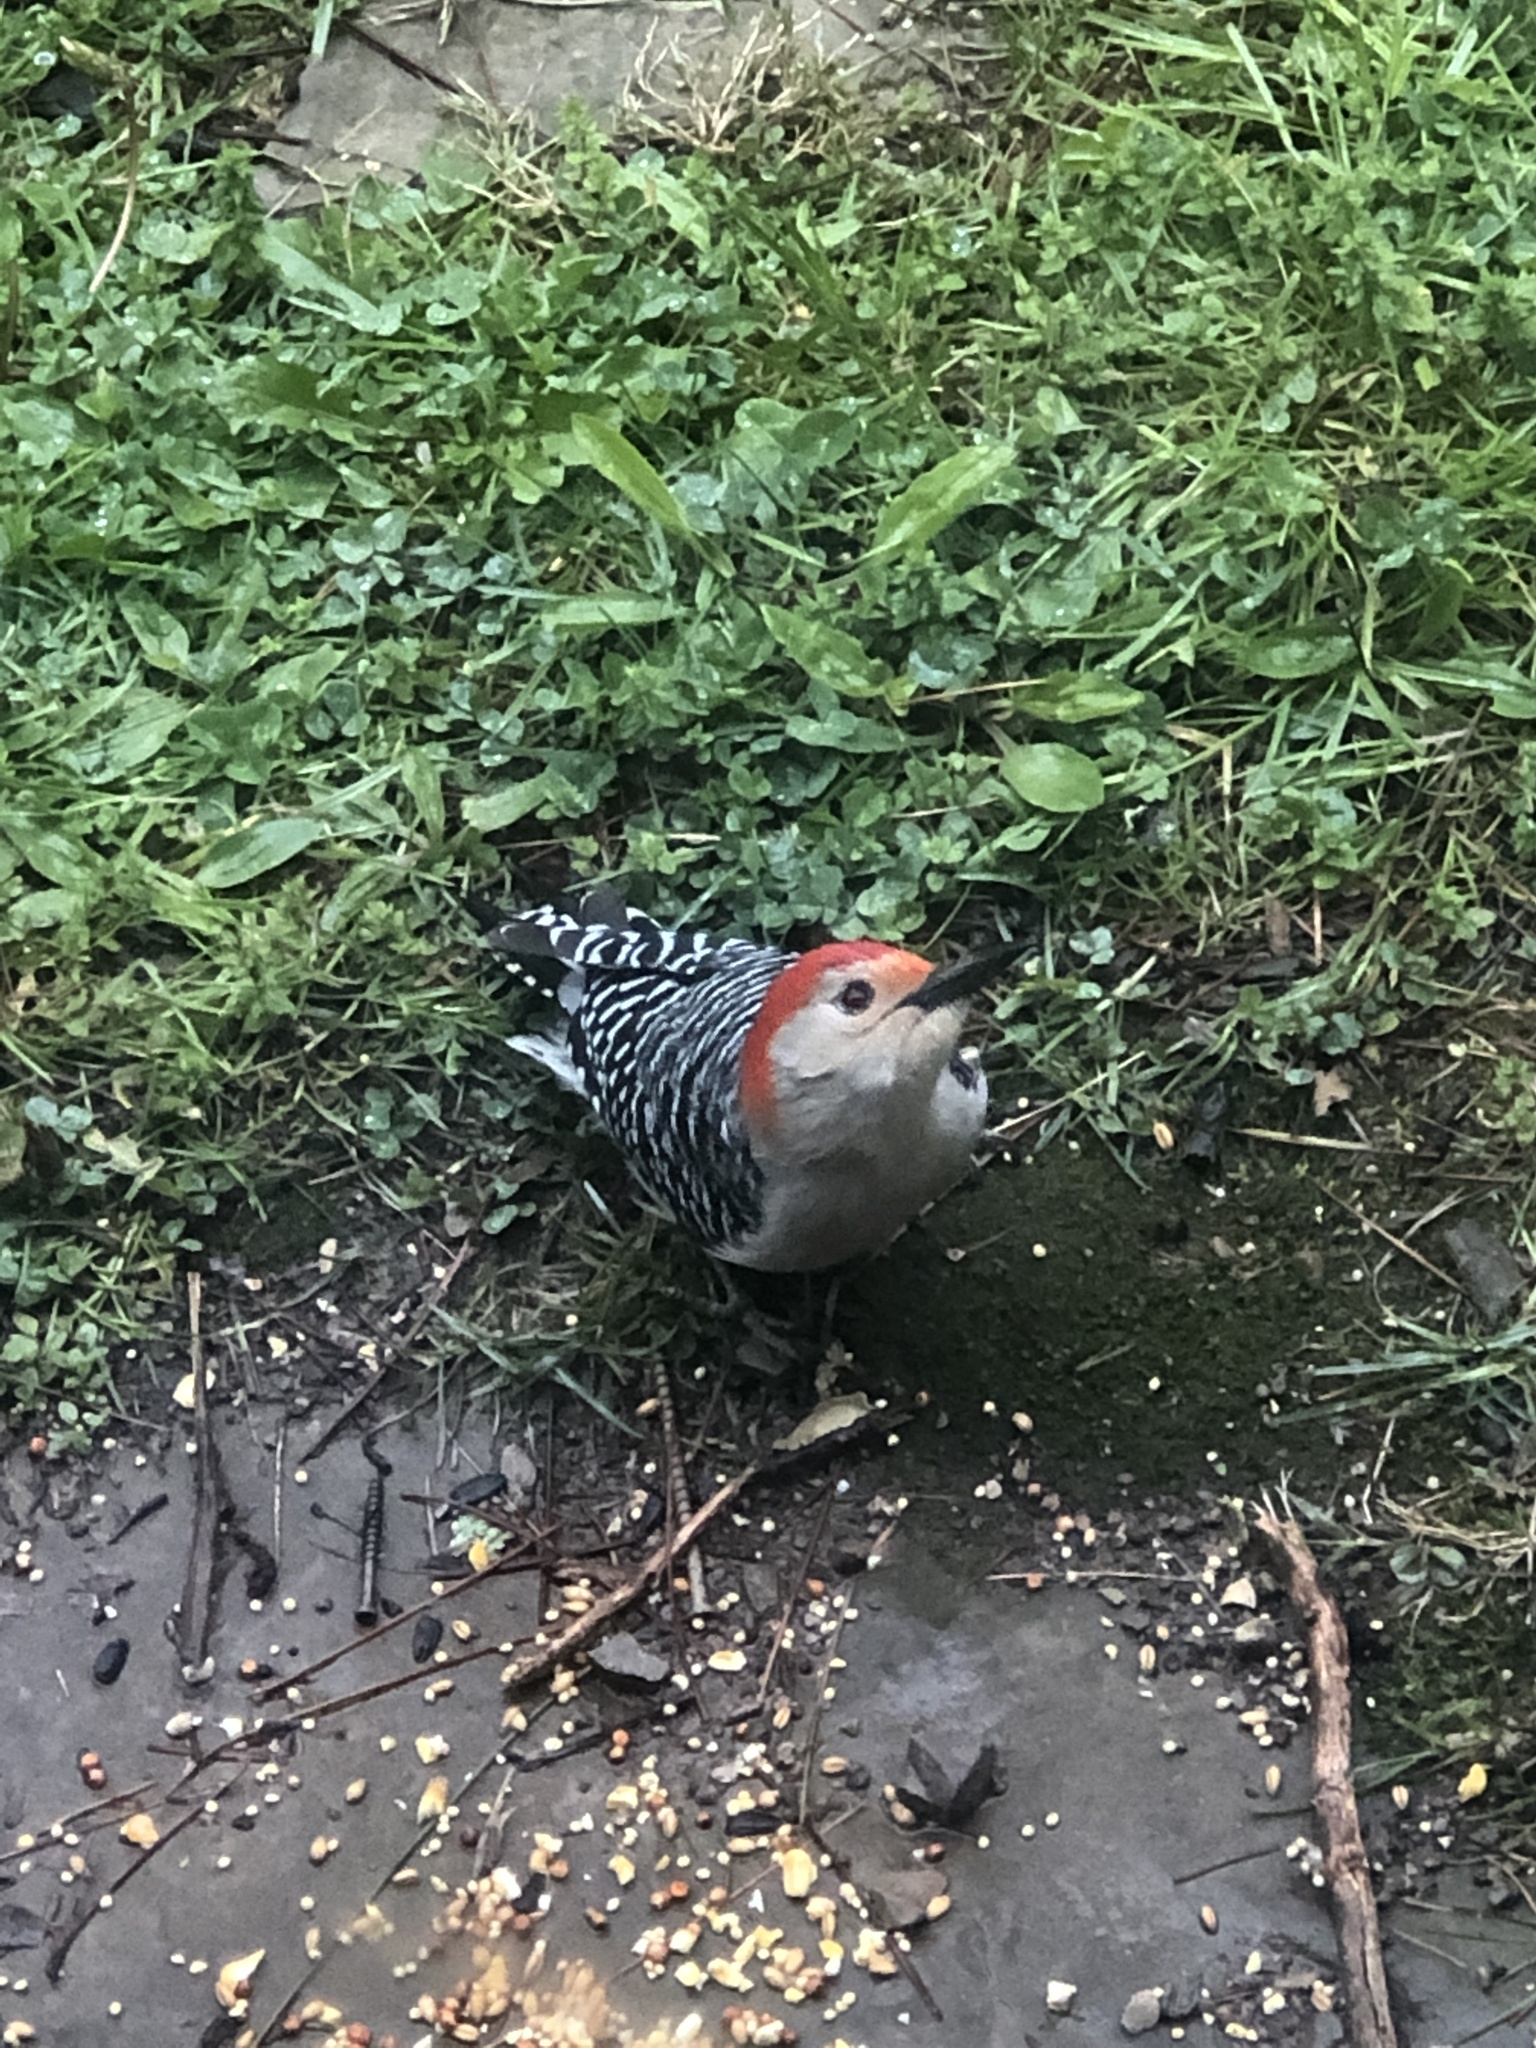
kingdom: Animalia
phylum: Chordata
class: Aves
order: Piciformes
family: Picidae
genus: Melanerpes
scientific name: Melanerpes carolinus
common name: Red-bellied woodpecker
